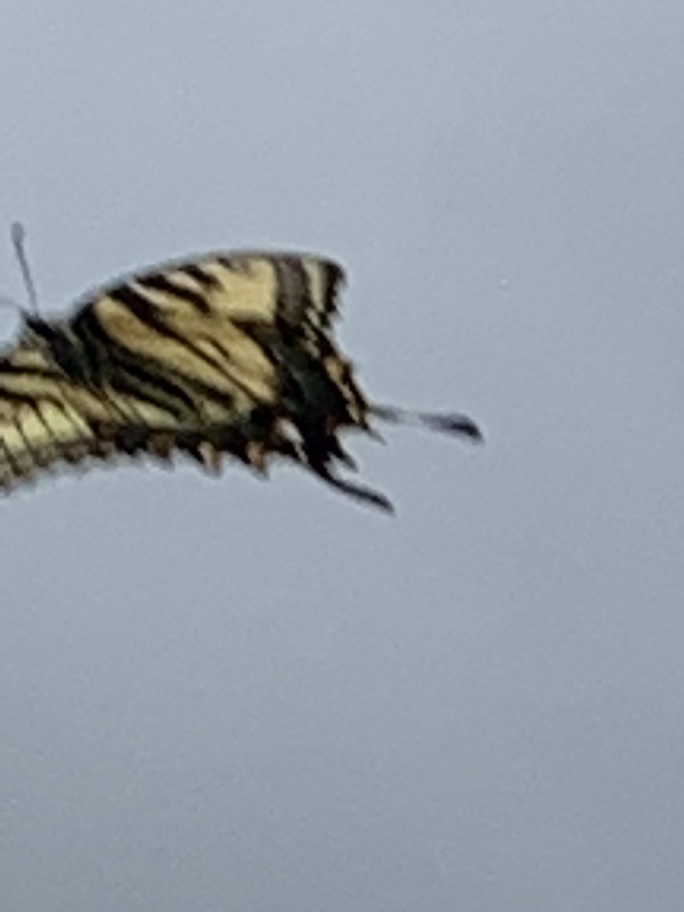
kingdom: Animalia
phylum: Arthropoda
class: Insecta
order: Lepidoptera
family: Papilionidae
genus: Papilio
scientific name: Papilio glaucus
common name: Tiger swallowtail
